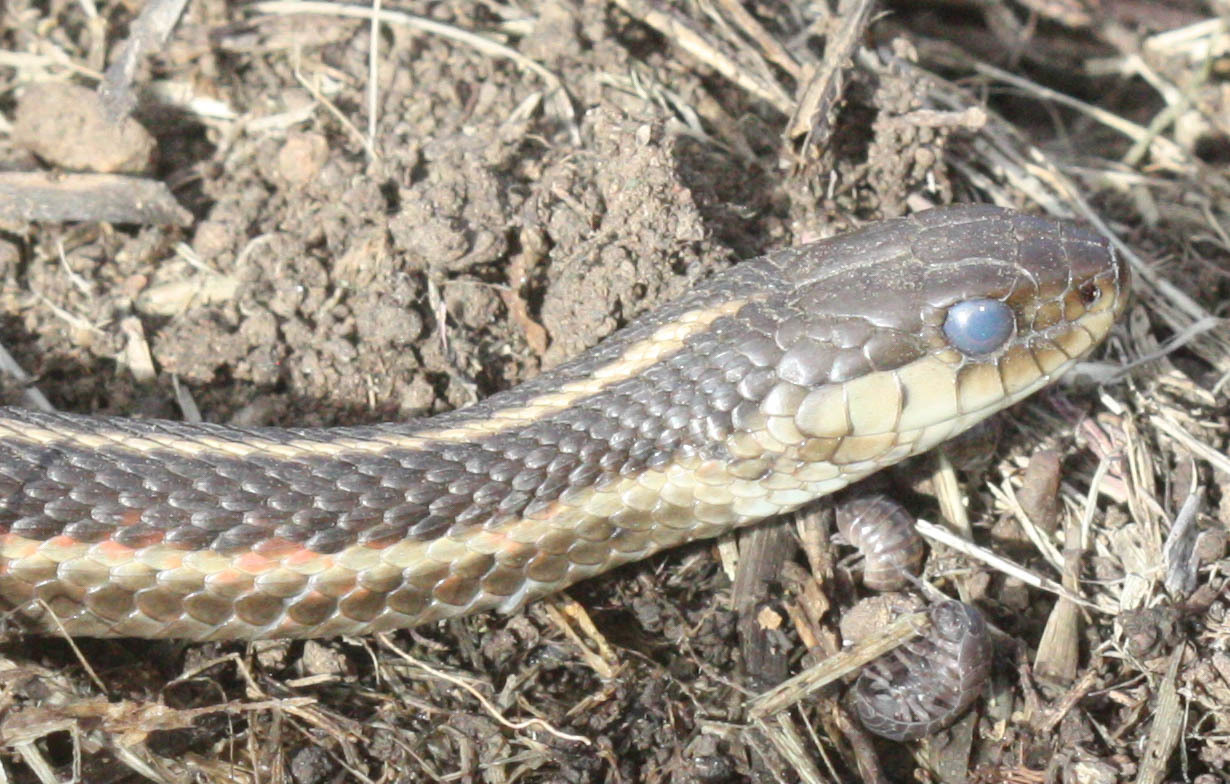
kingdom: Animalia
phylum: Chordata
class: Squamata
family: Colubridae
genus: Thamnophis
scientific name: Thamnophis elegans
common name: Western terrestrial garter snake
